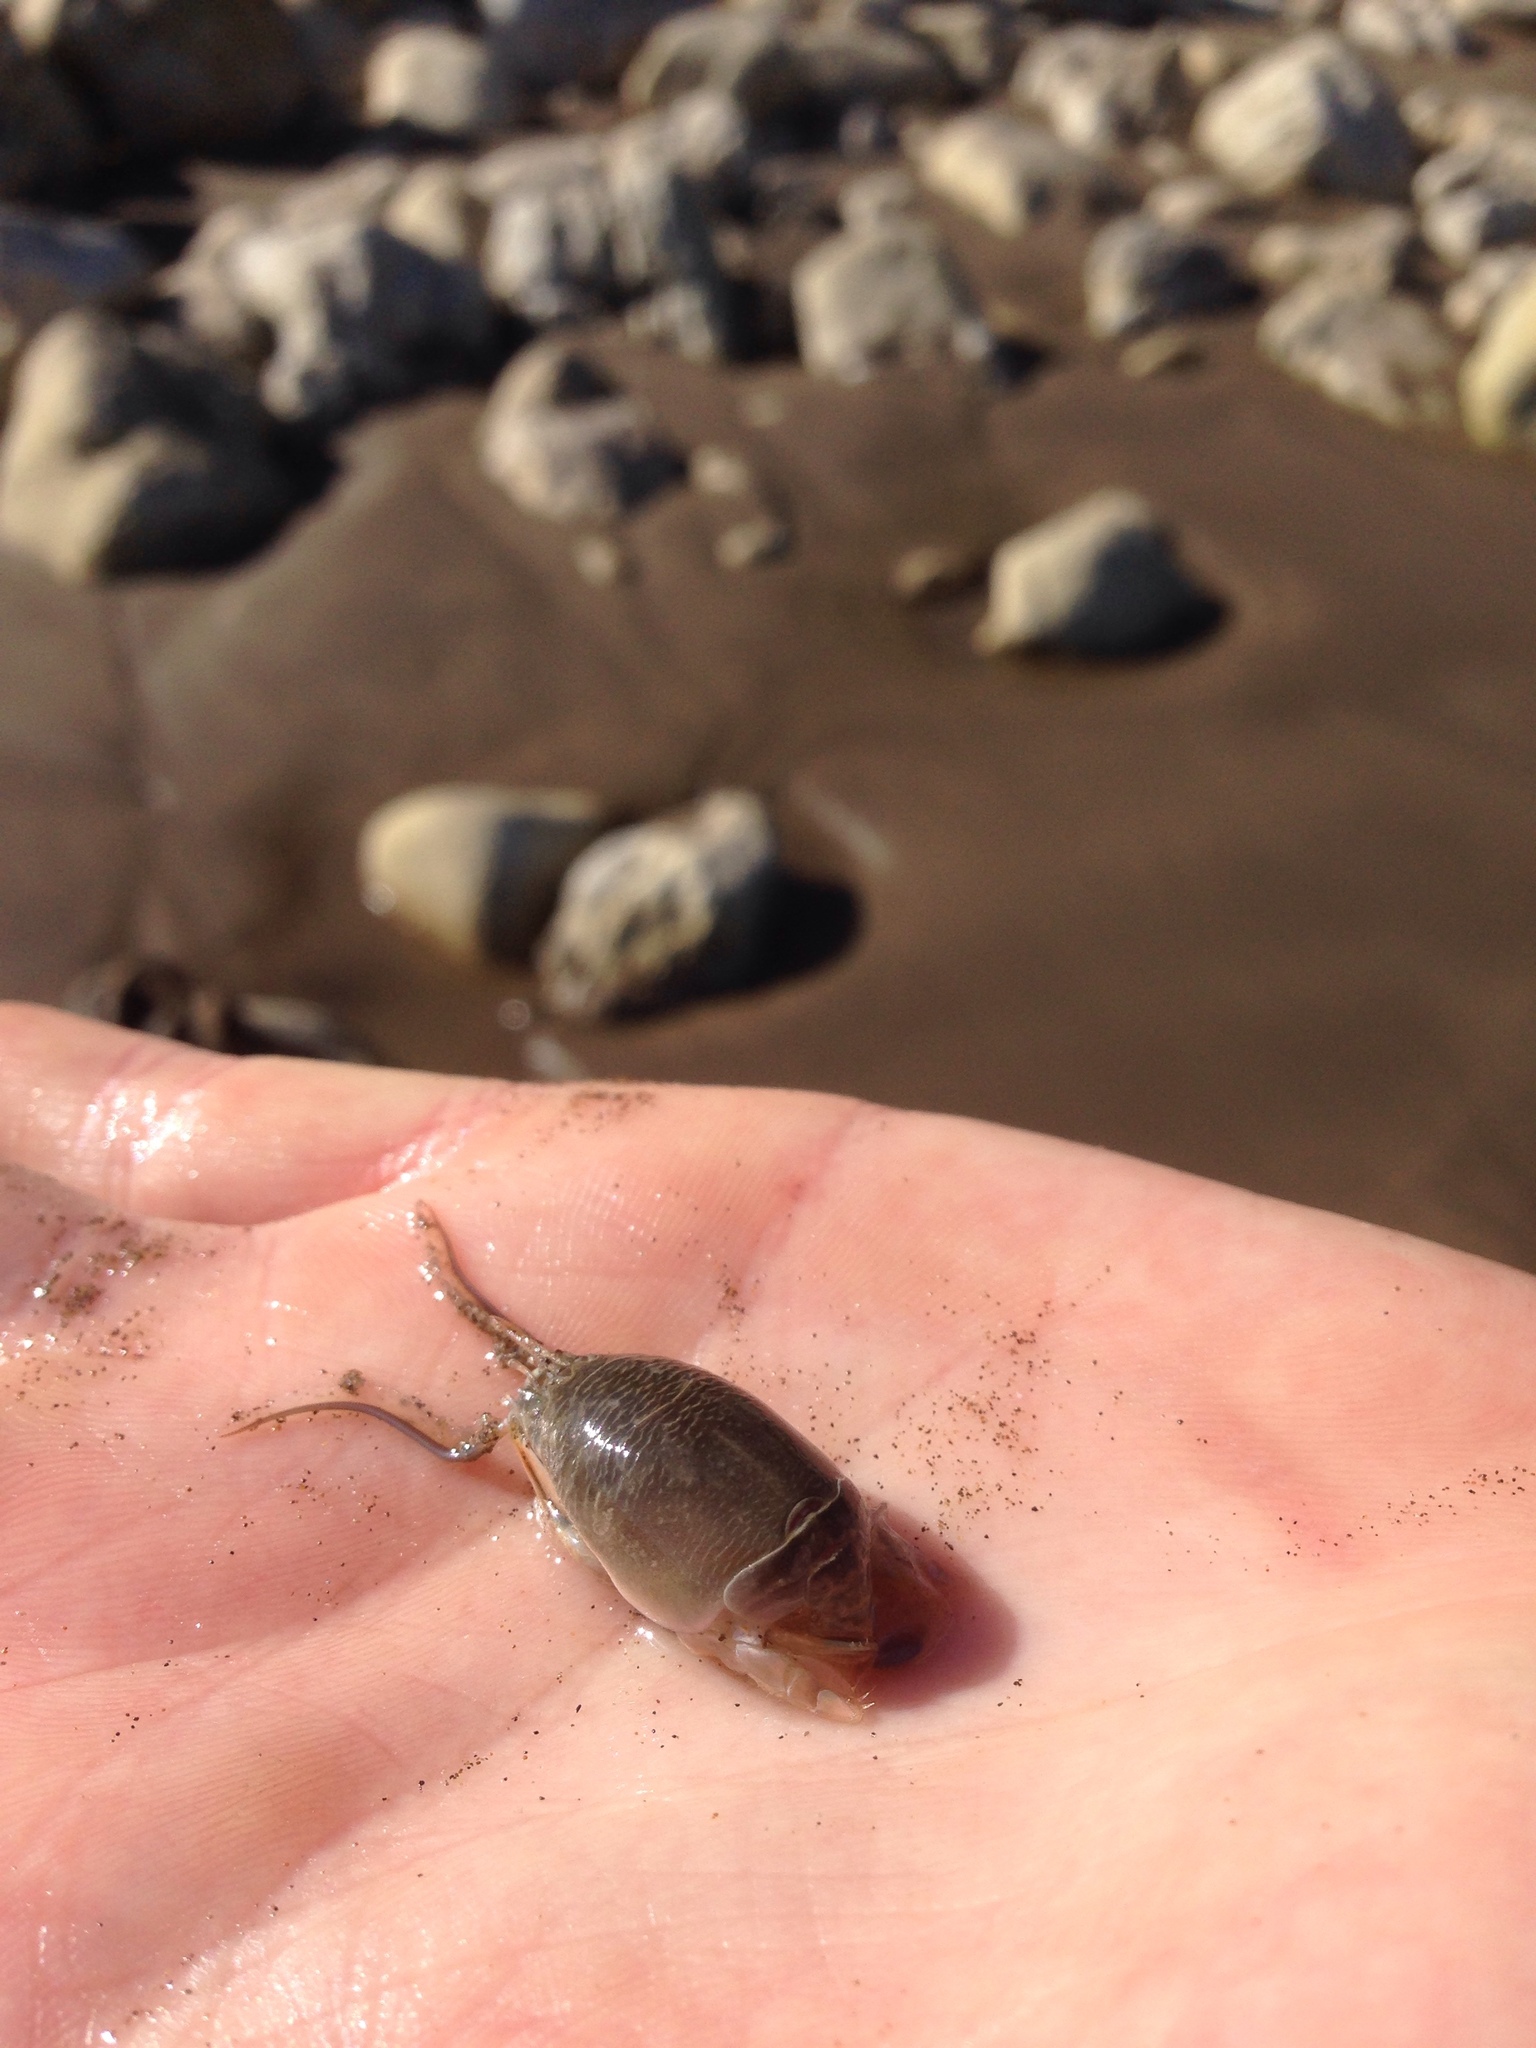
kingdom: Animalia
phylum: Arthropoda
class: Malacostraca
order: Decapoda
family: Hippidae
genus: Emerita
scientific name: Emerita analoga
